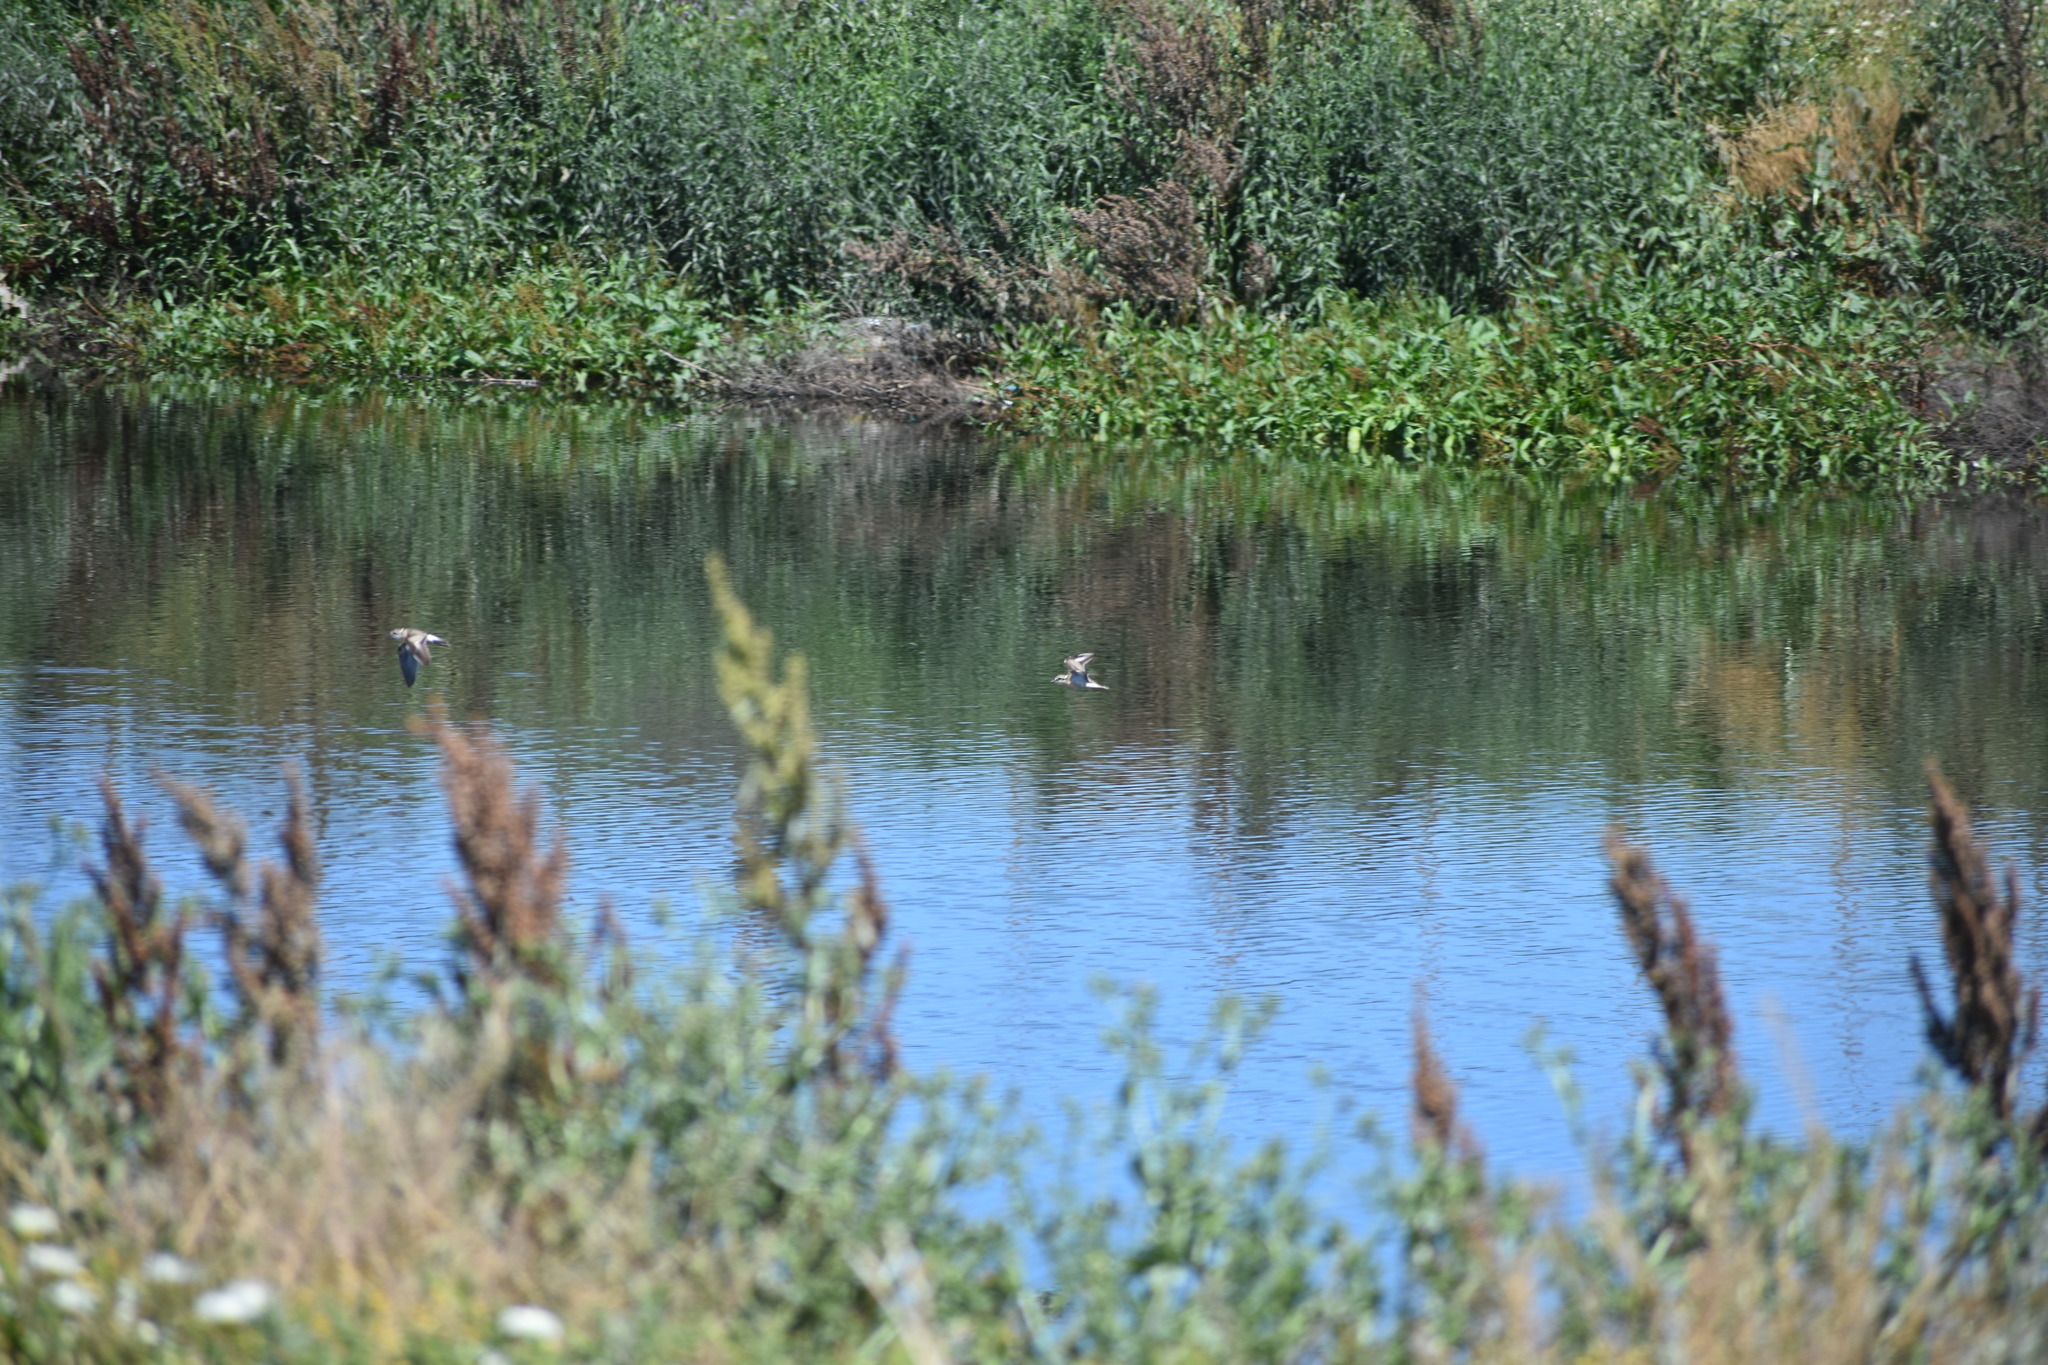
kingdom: Animalia
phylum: Chordata
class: Aves
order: Charadriiformes
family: Charadriidae
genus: Anarhynchus
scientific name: Anarhynchus
